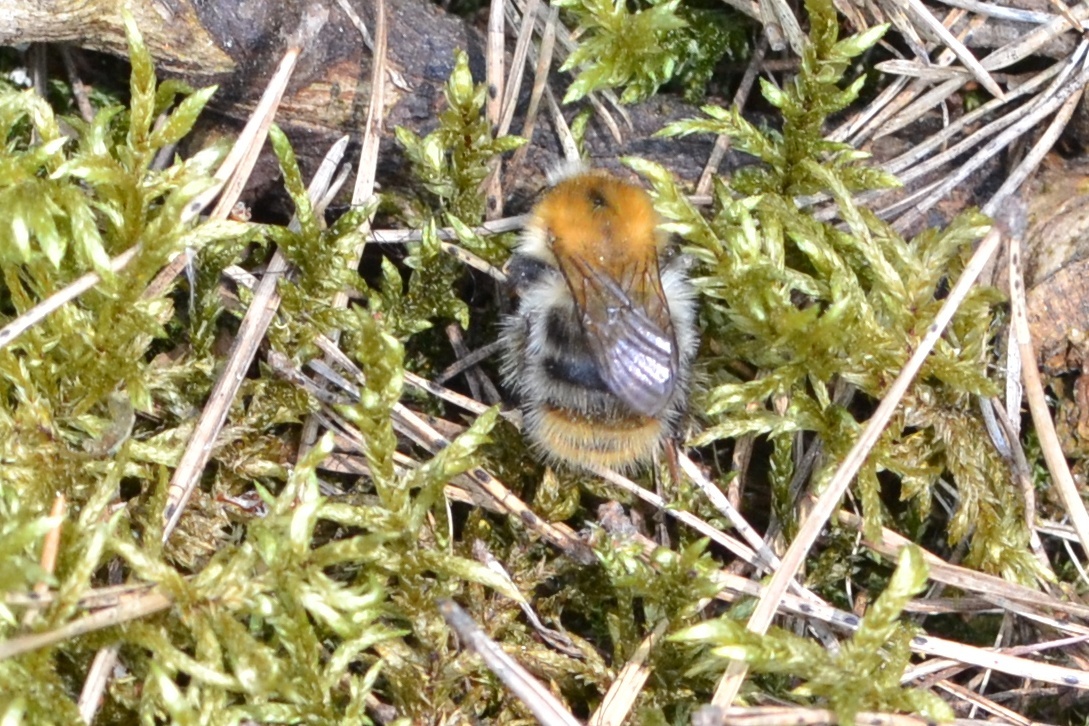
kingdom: Animalia
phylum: Arthropoda
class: Insecta
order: Hymenoptera
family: Apidae
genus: Bombus
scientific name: Bombus pascuorum
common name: Common carder bee
